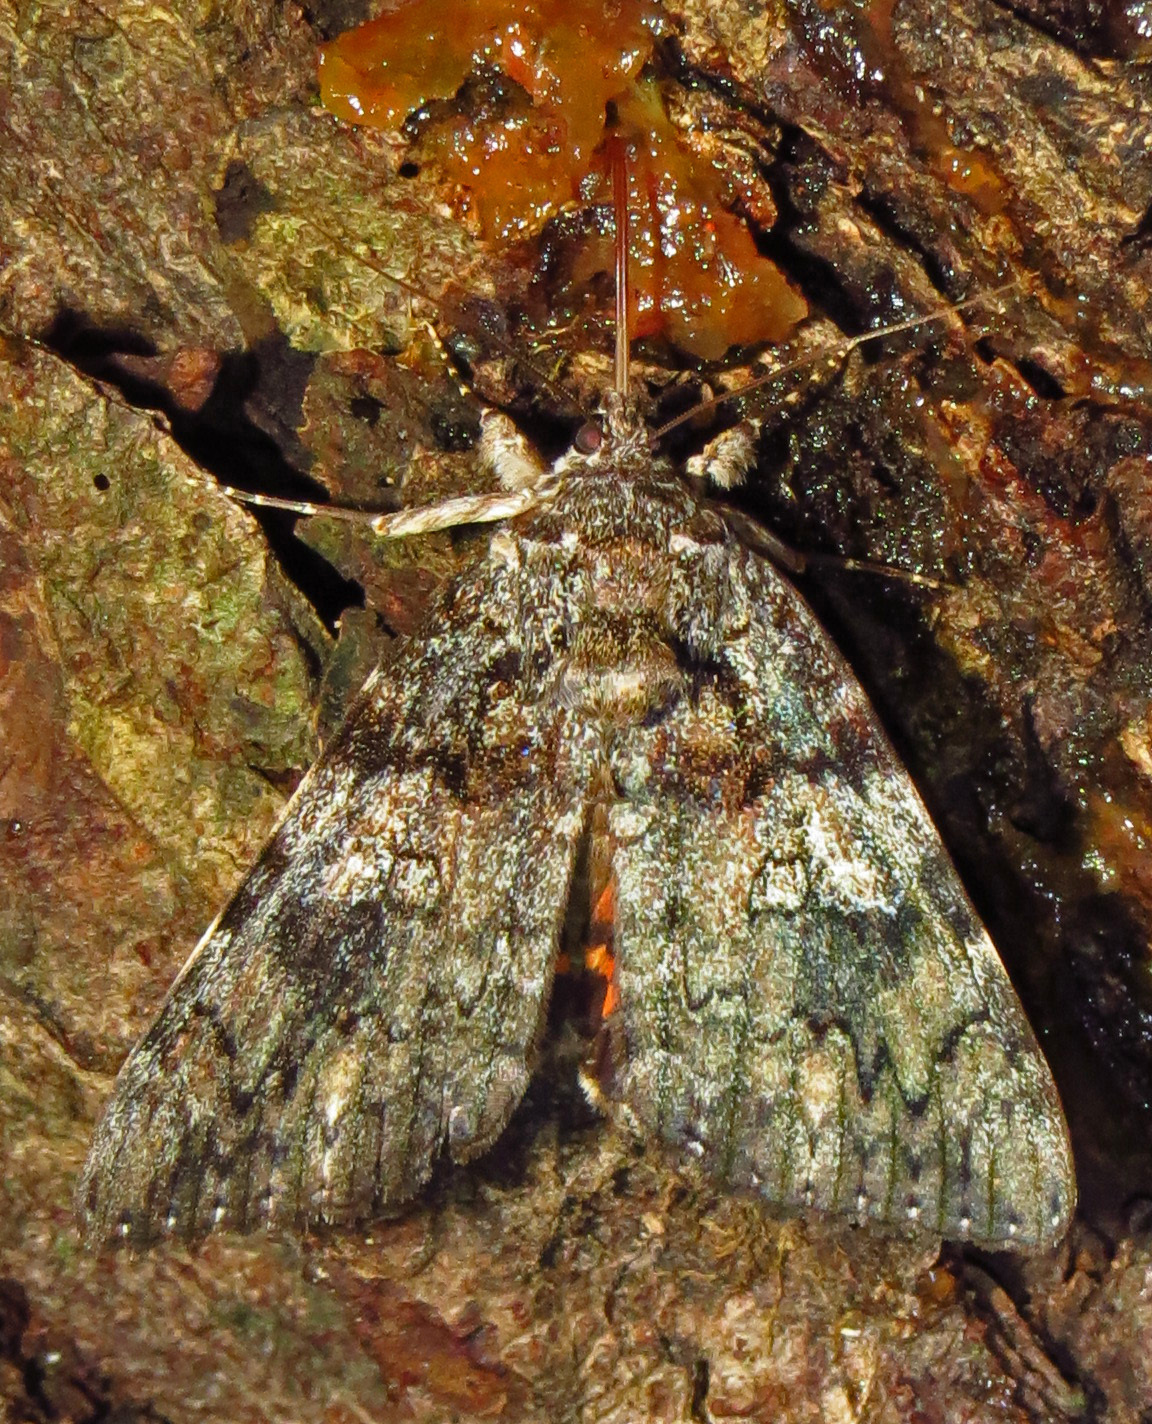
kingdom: Animalia
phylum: Arthropoda
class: Insecta
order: Lepidoptera
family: Erebidae
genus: Catocala
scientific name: Catocala ilia
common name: Ilia underwing
